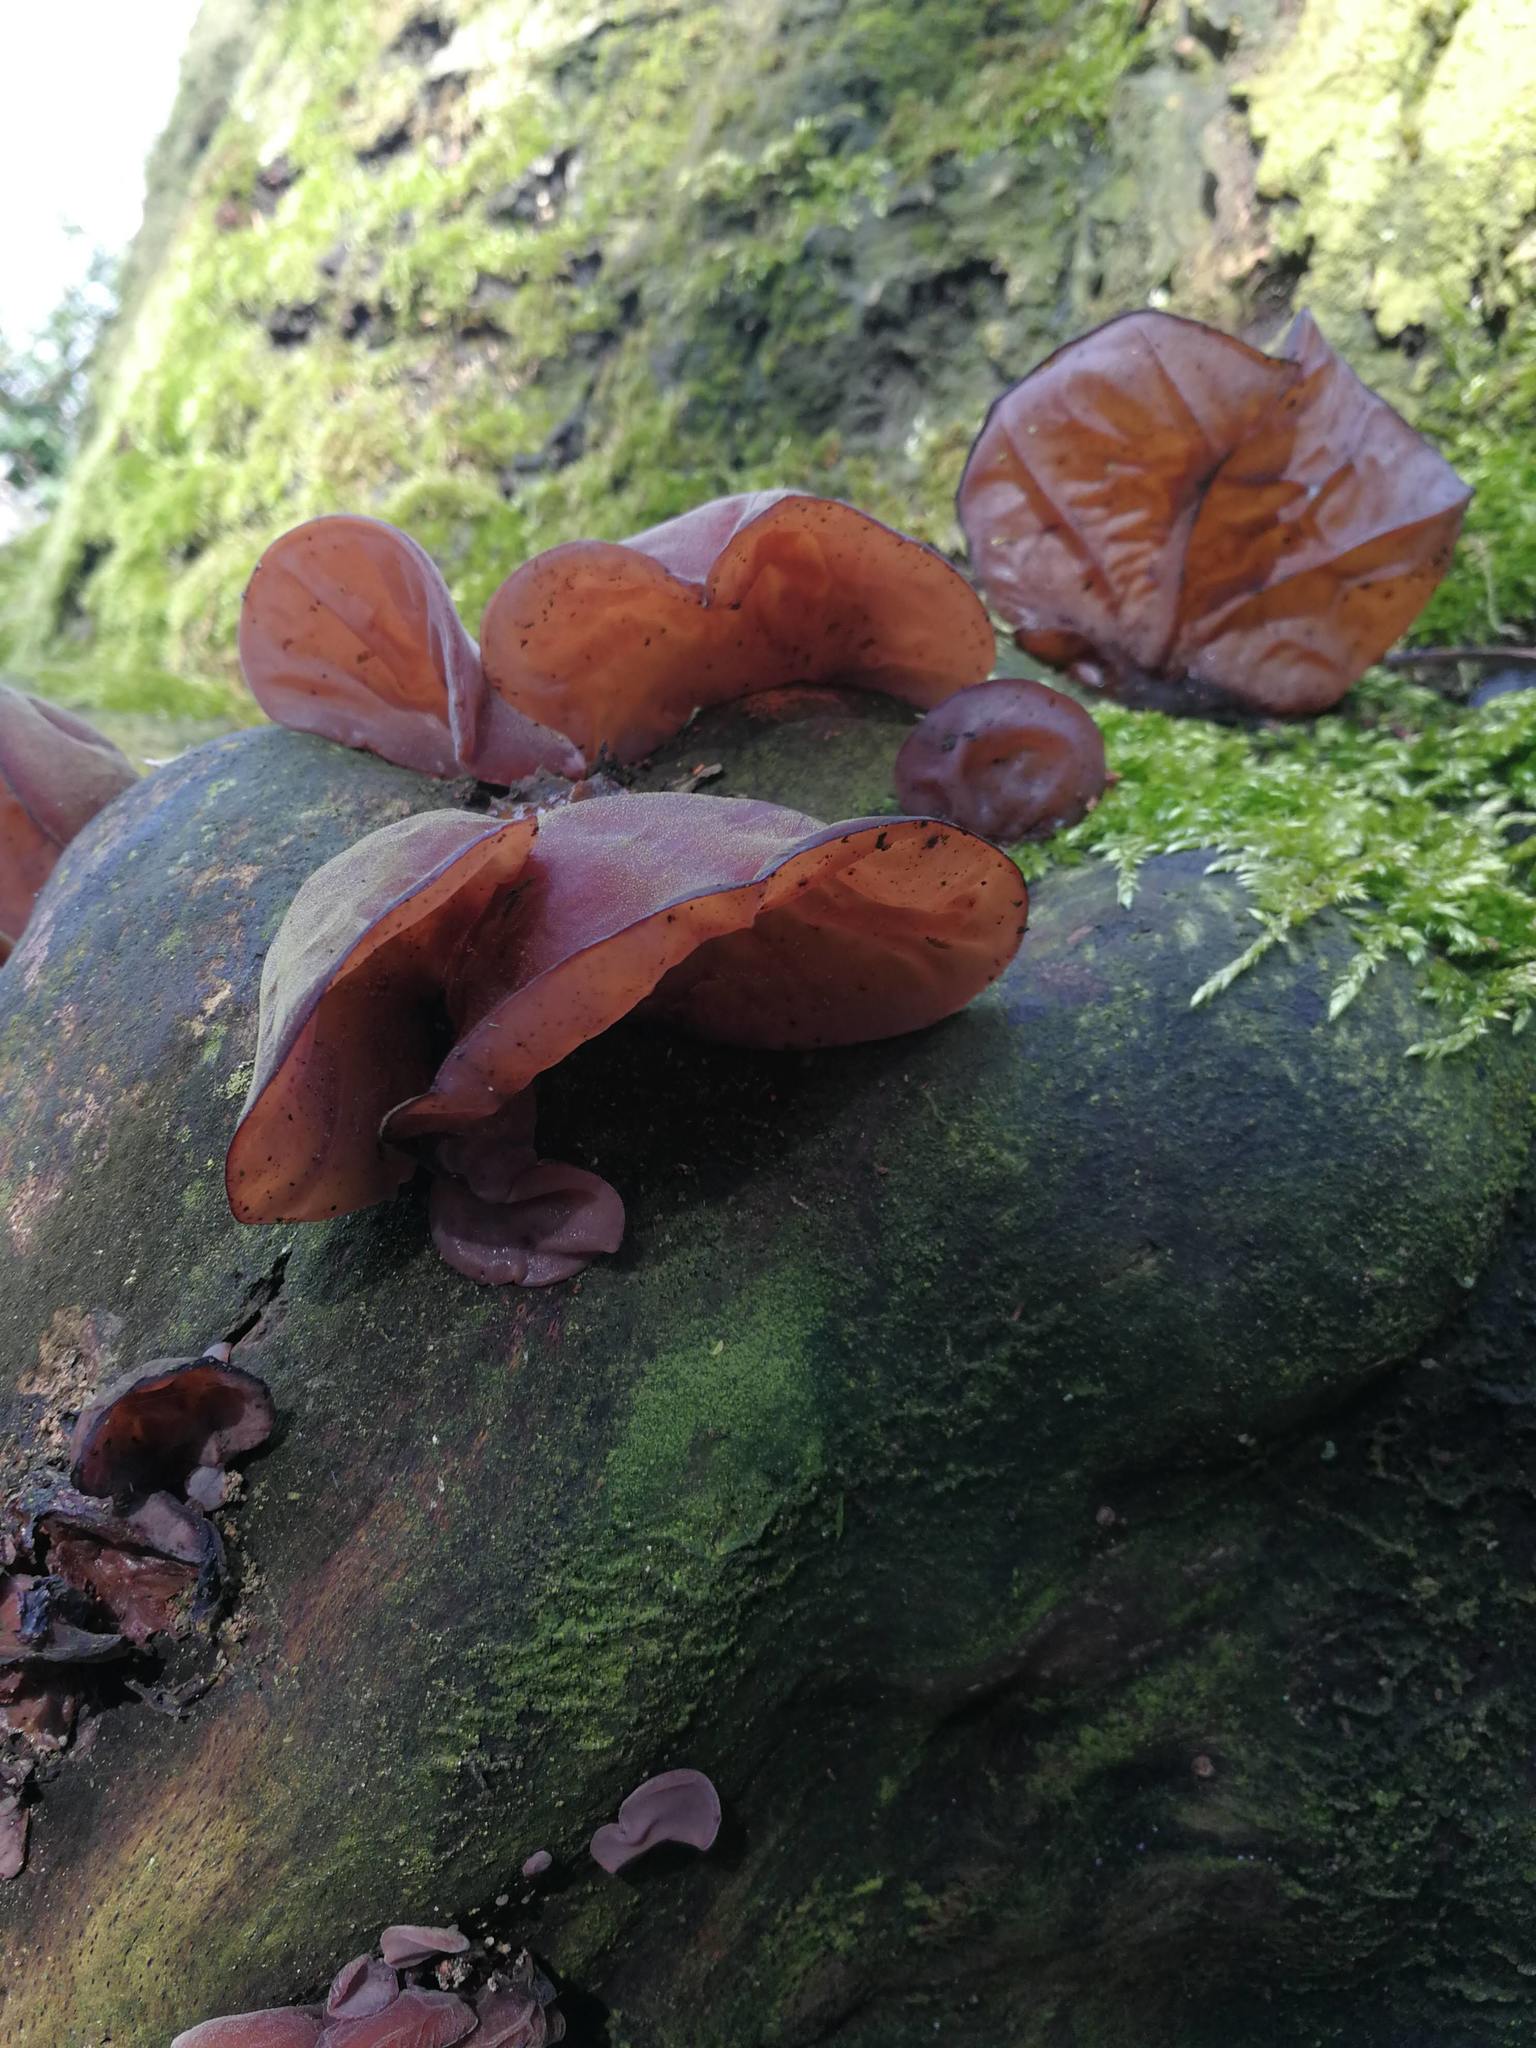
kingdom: Fungi
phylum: Basidiomycota
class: Agaricomycetes
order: Auriculariales
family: Auriculariaceae
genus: Auricularia
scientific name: Auricularia auricula-judae
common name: Jelly ear
